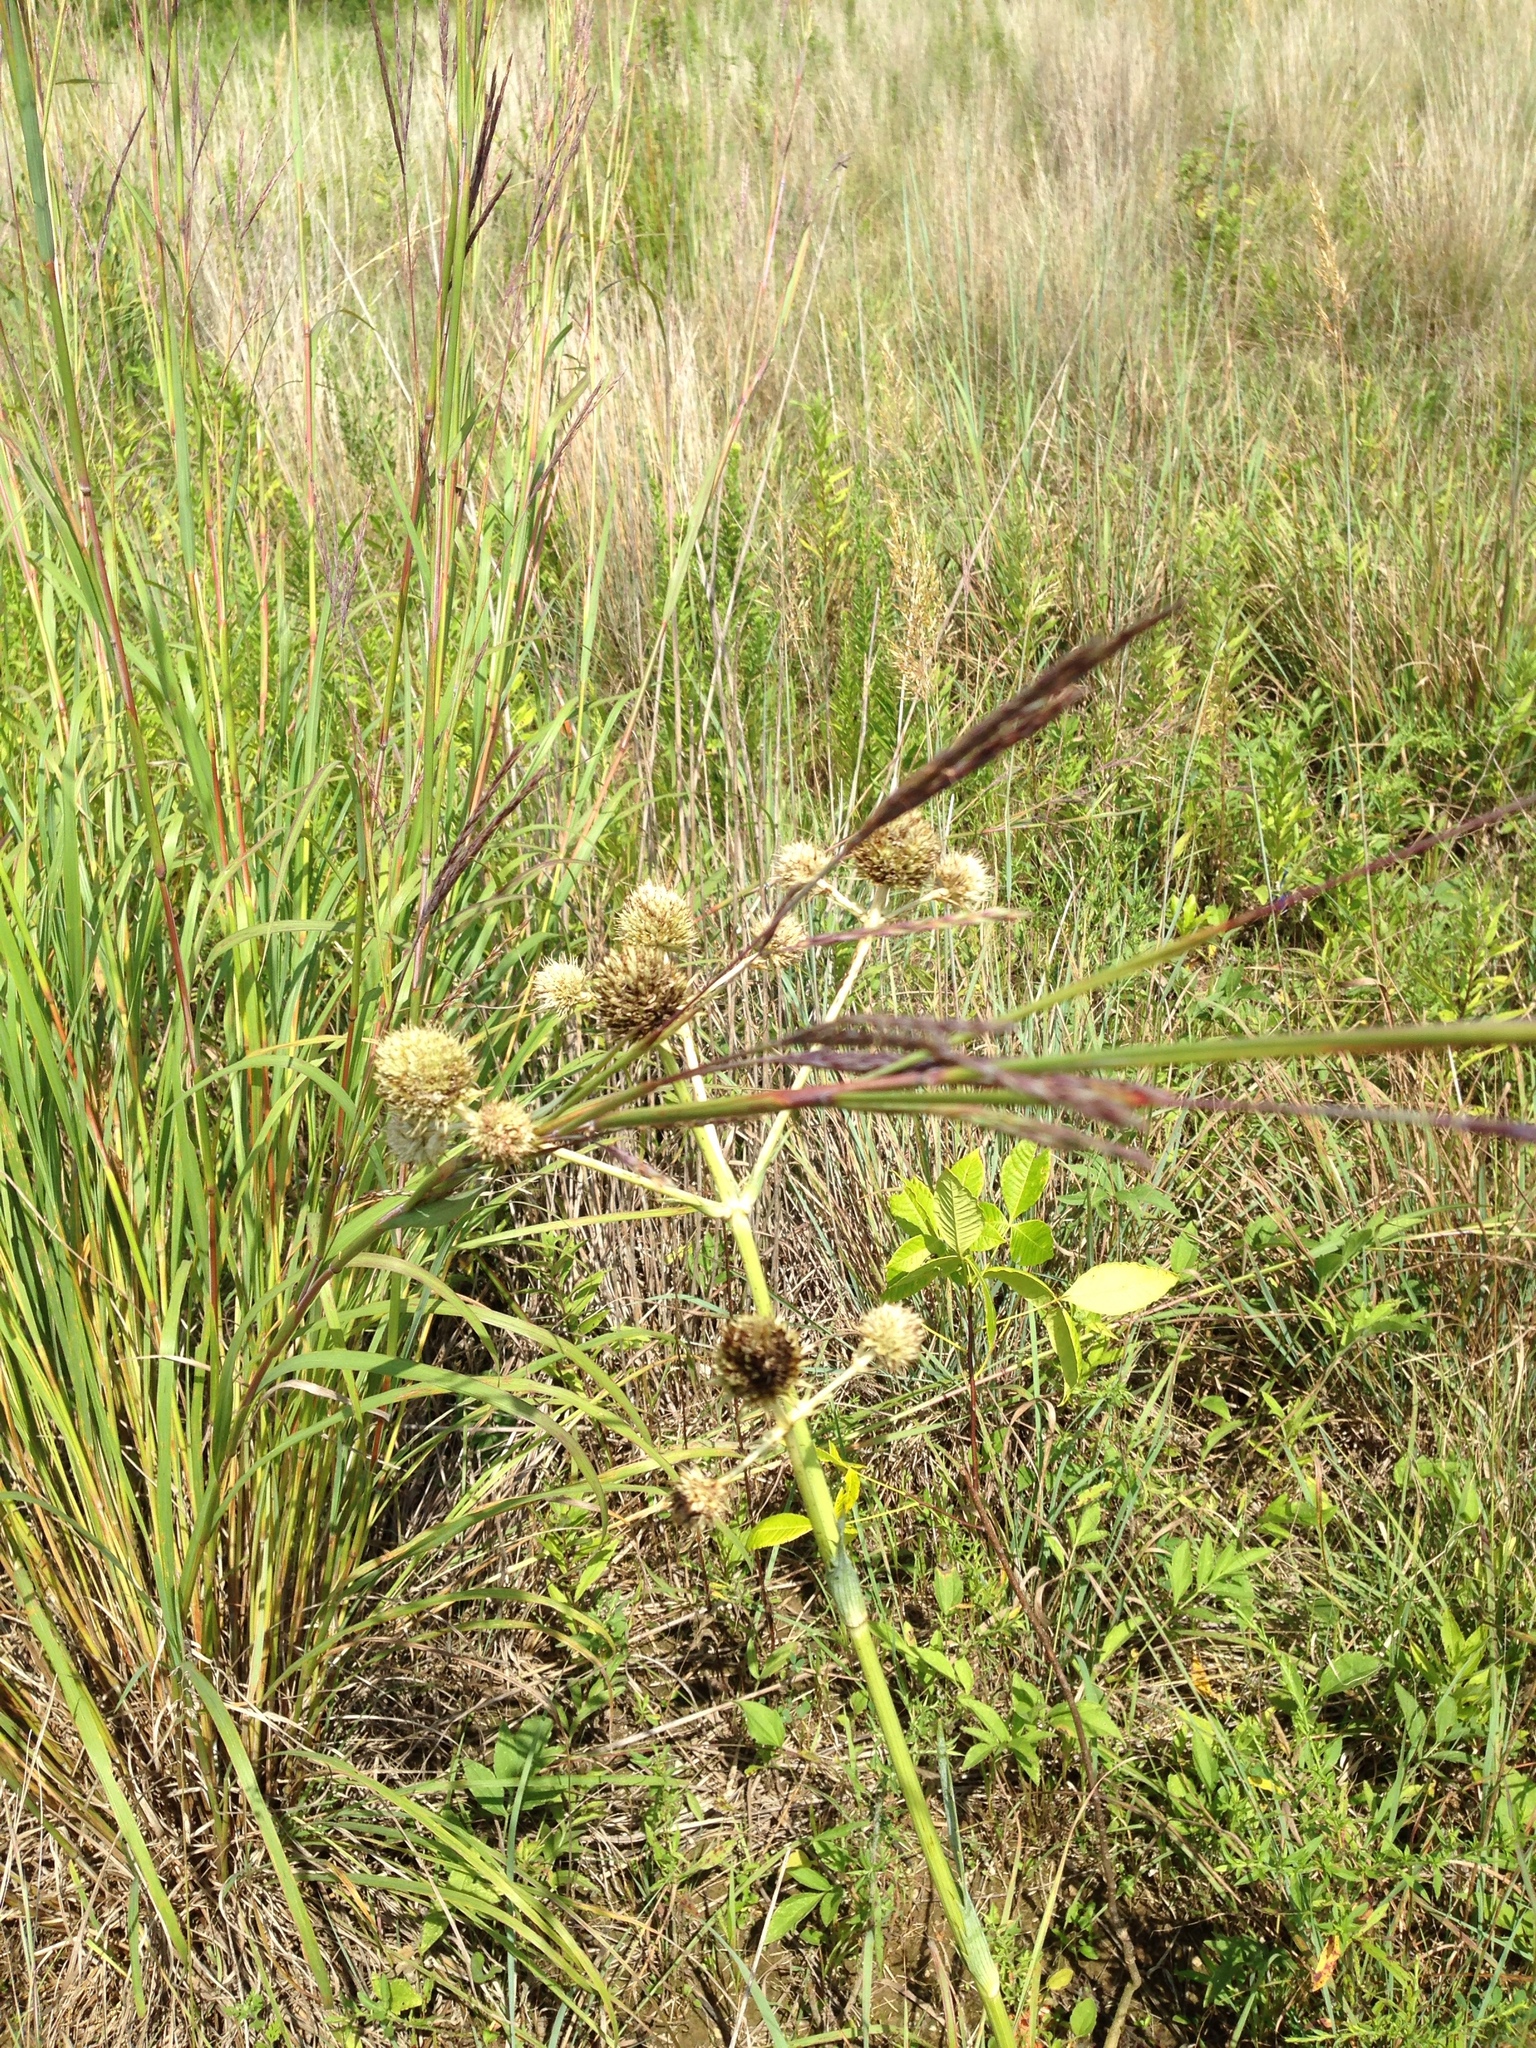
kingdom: Plantae
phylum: Tracheophyta
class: Magnoliopsida
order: Apiales
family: Apiaceae
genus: Eryngium
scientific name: Eryngium yuccifolium
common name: Button eryngo
